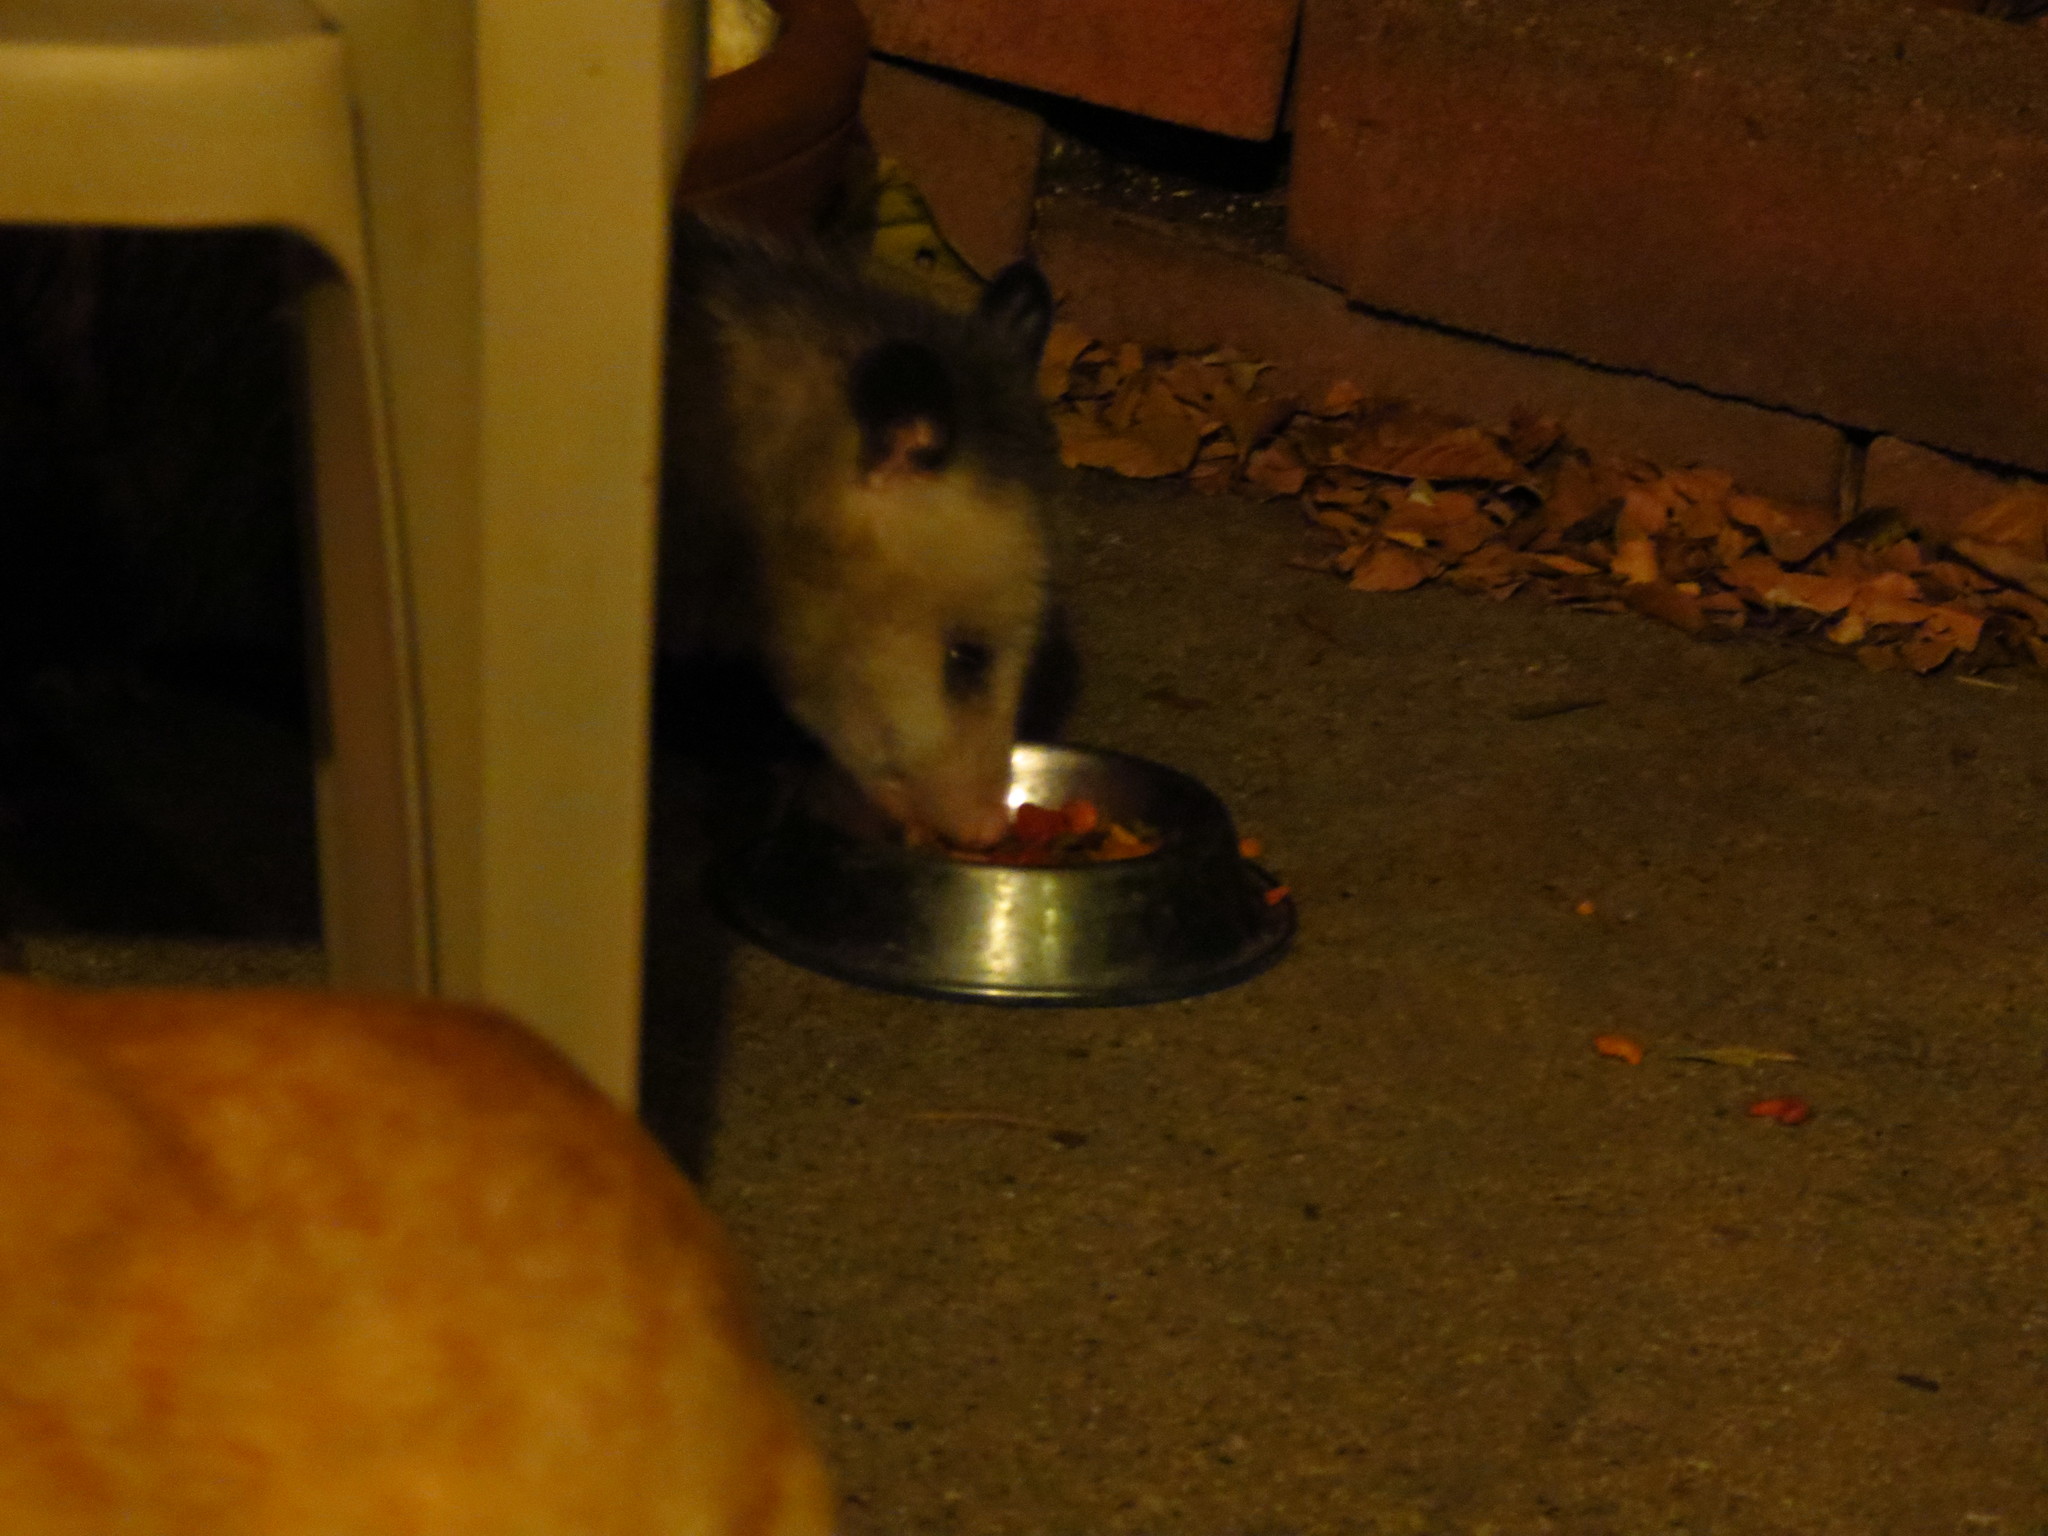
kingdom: Animalia
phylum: Chordata
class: Mammalia
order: Didelphimorphia
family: Didelphidae
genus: Didelphis
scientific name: Didelphis virginiana
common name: Virginia opossum
